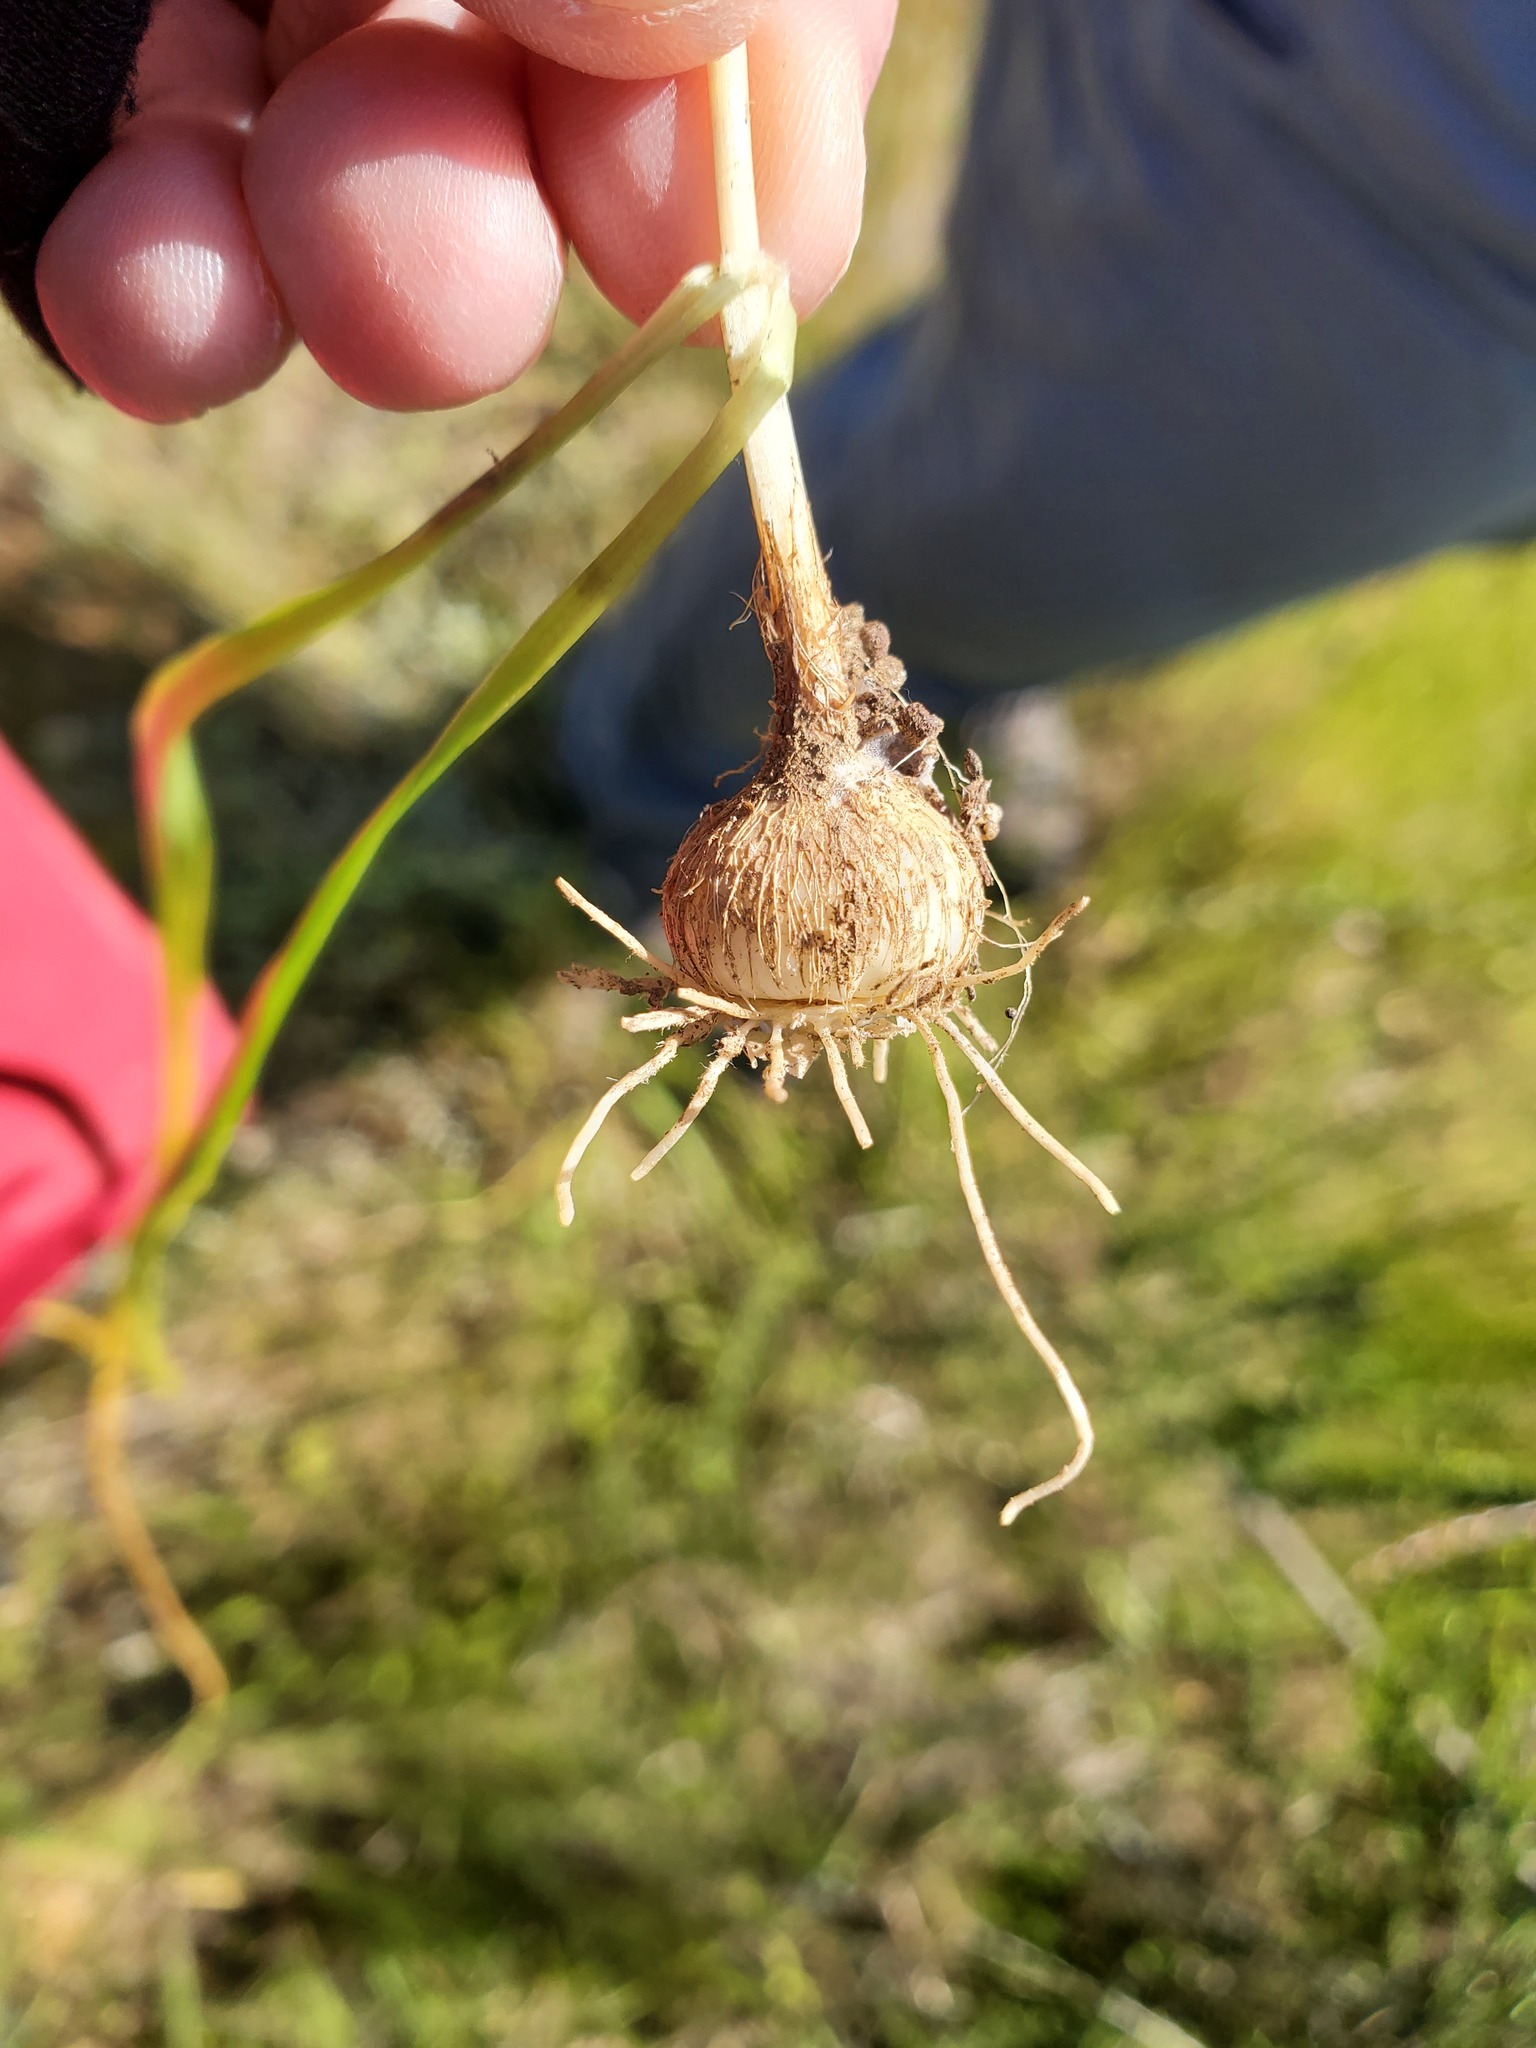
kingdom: Plantae
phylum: Tracheophyta
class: Liliopsida
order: Asparagales
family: Asparagaceae
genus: Triteleia
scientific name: Triteleia laxa
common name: Triplet-lily
